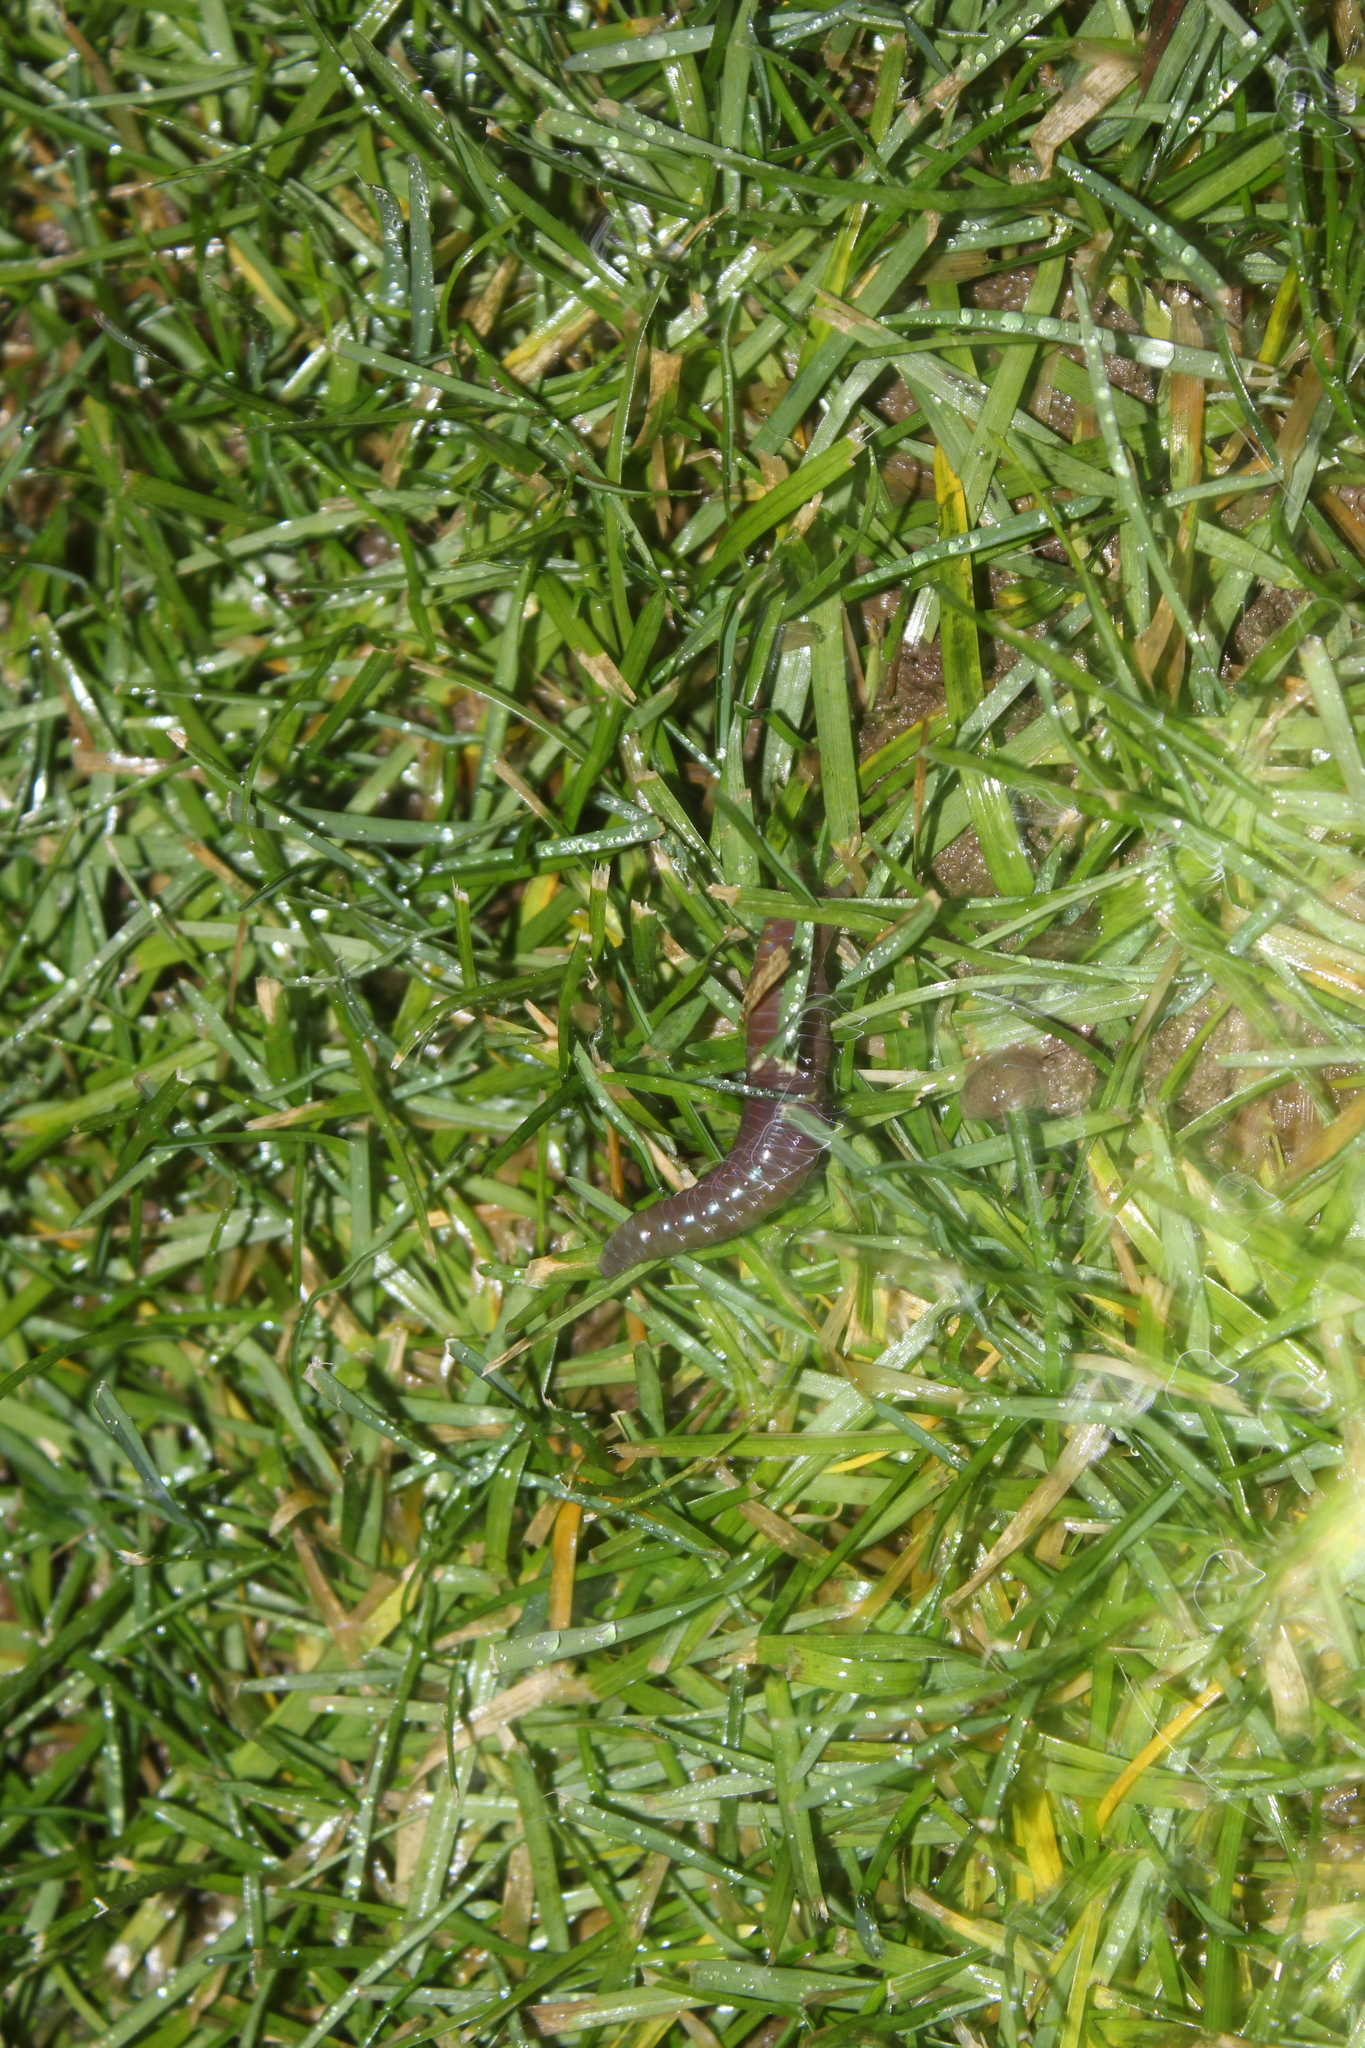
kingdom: Animalia
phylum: Annelida
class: Clitellata
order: Crassiclitellata
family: Lumbricidae
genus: Lumbricus
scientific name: Lumbricus terrestris
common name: Common earthworm
